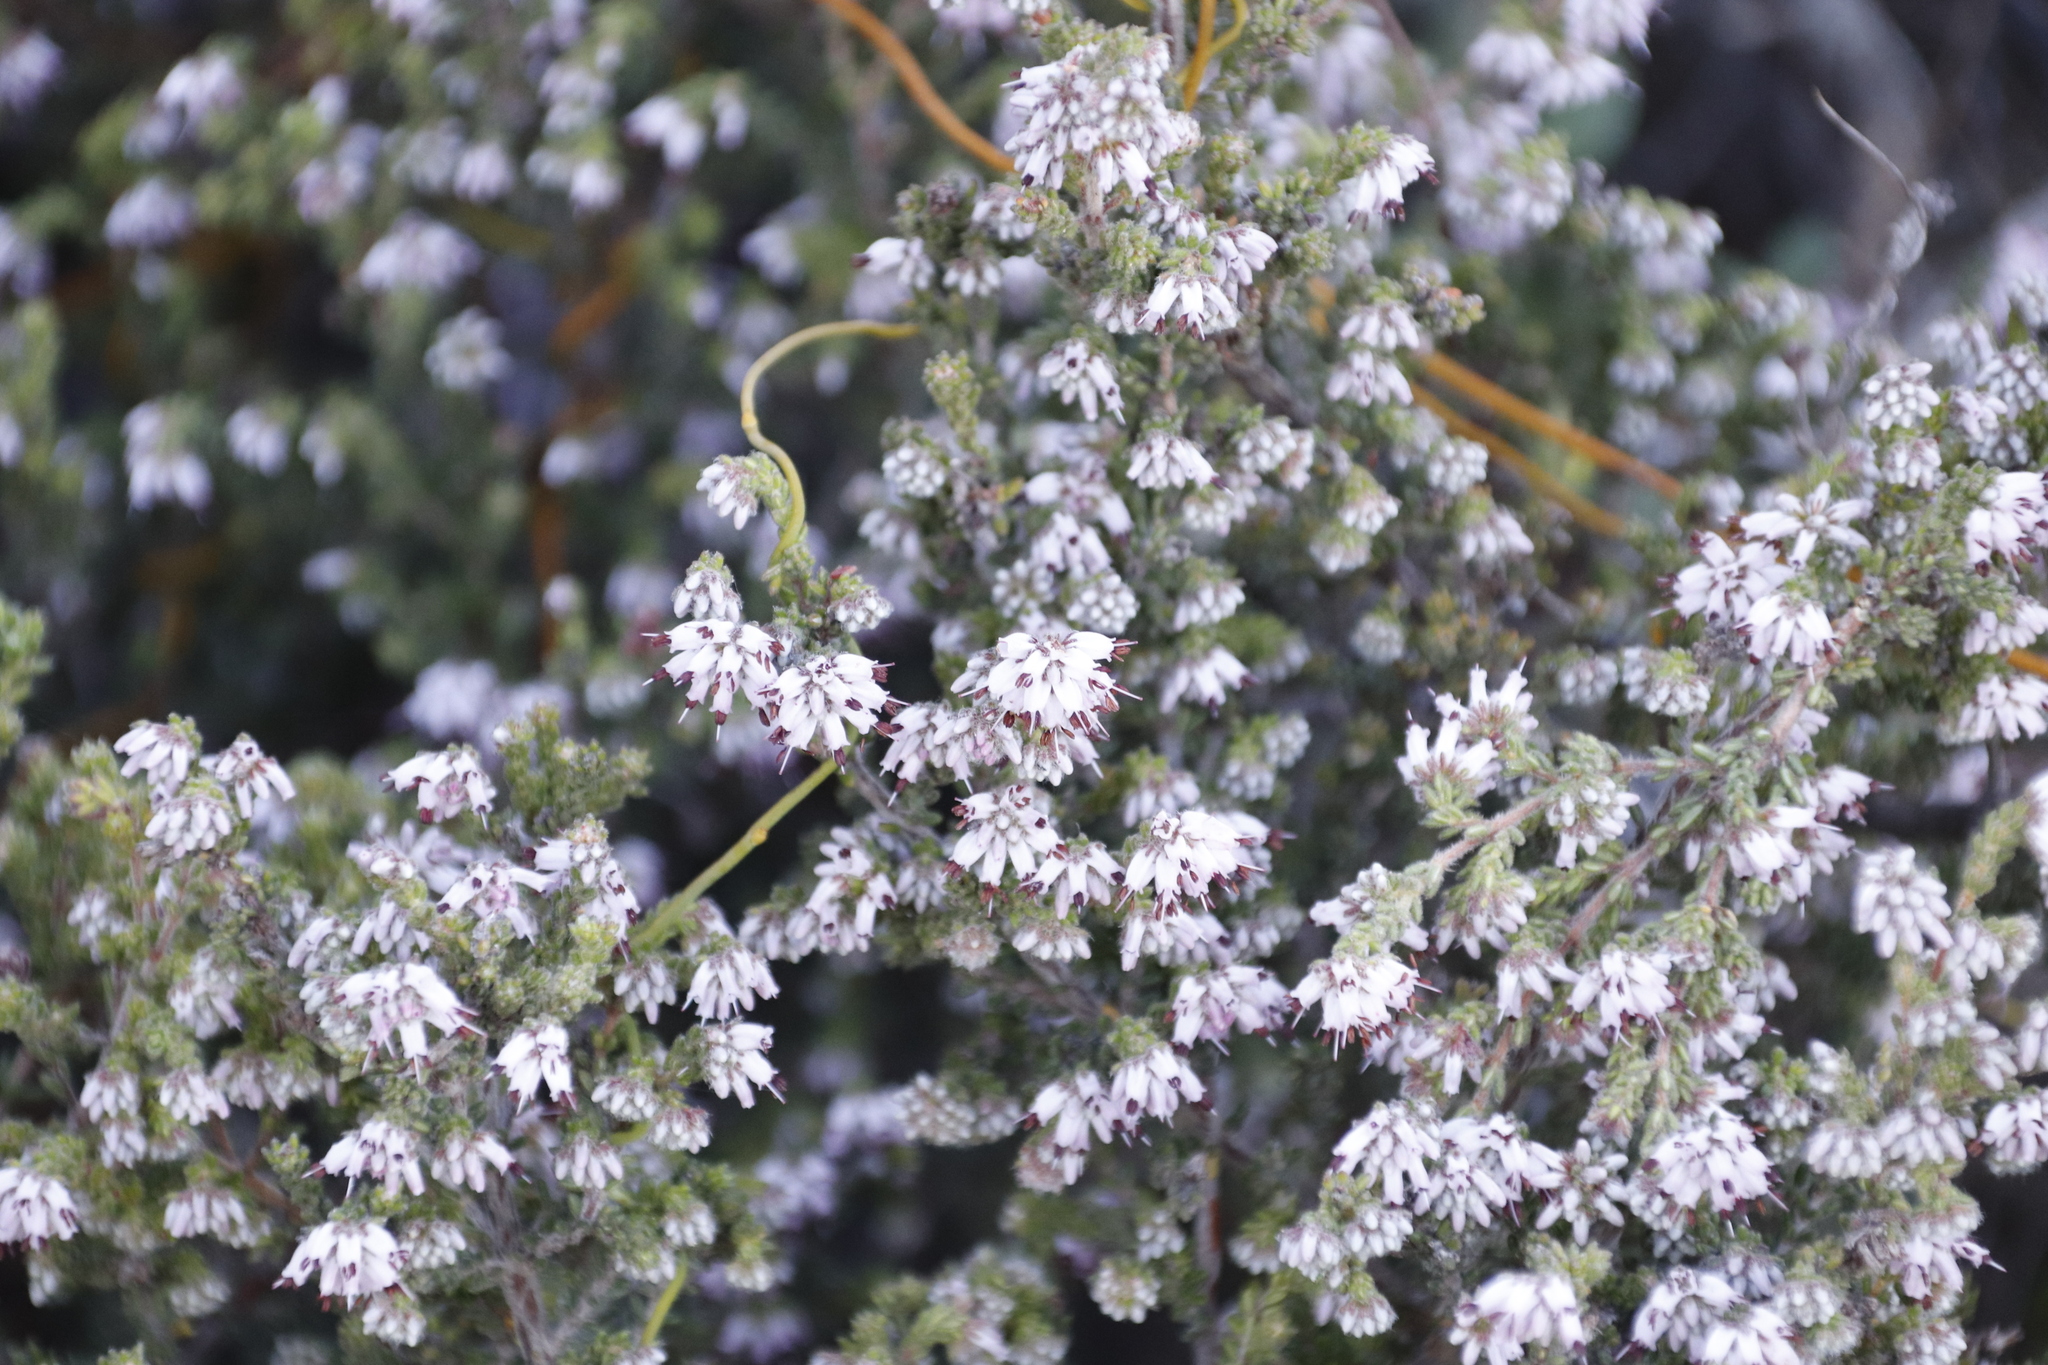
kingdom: Plantae
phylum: Tracheophyta
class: Magnoliopsida
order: Ericales
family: Ericaceae
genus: Erica
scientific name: Erica ericoides
